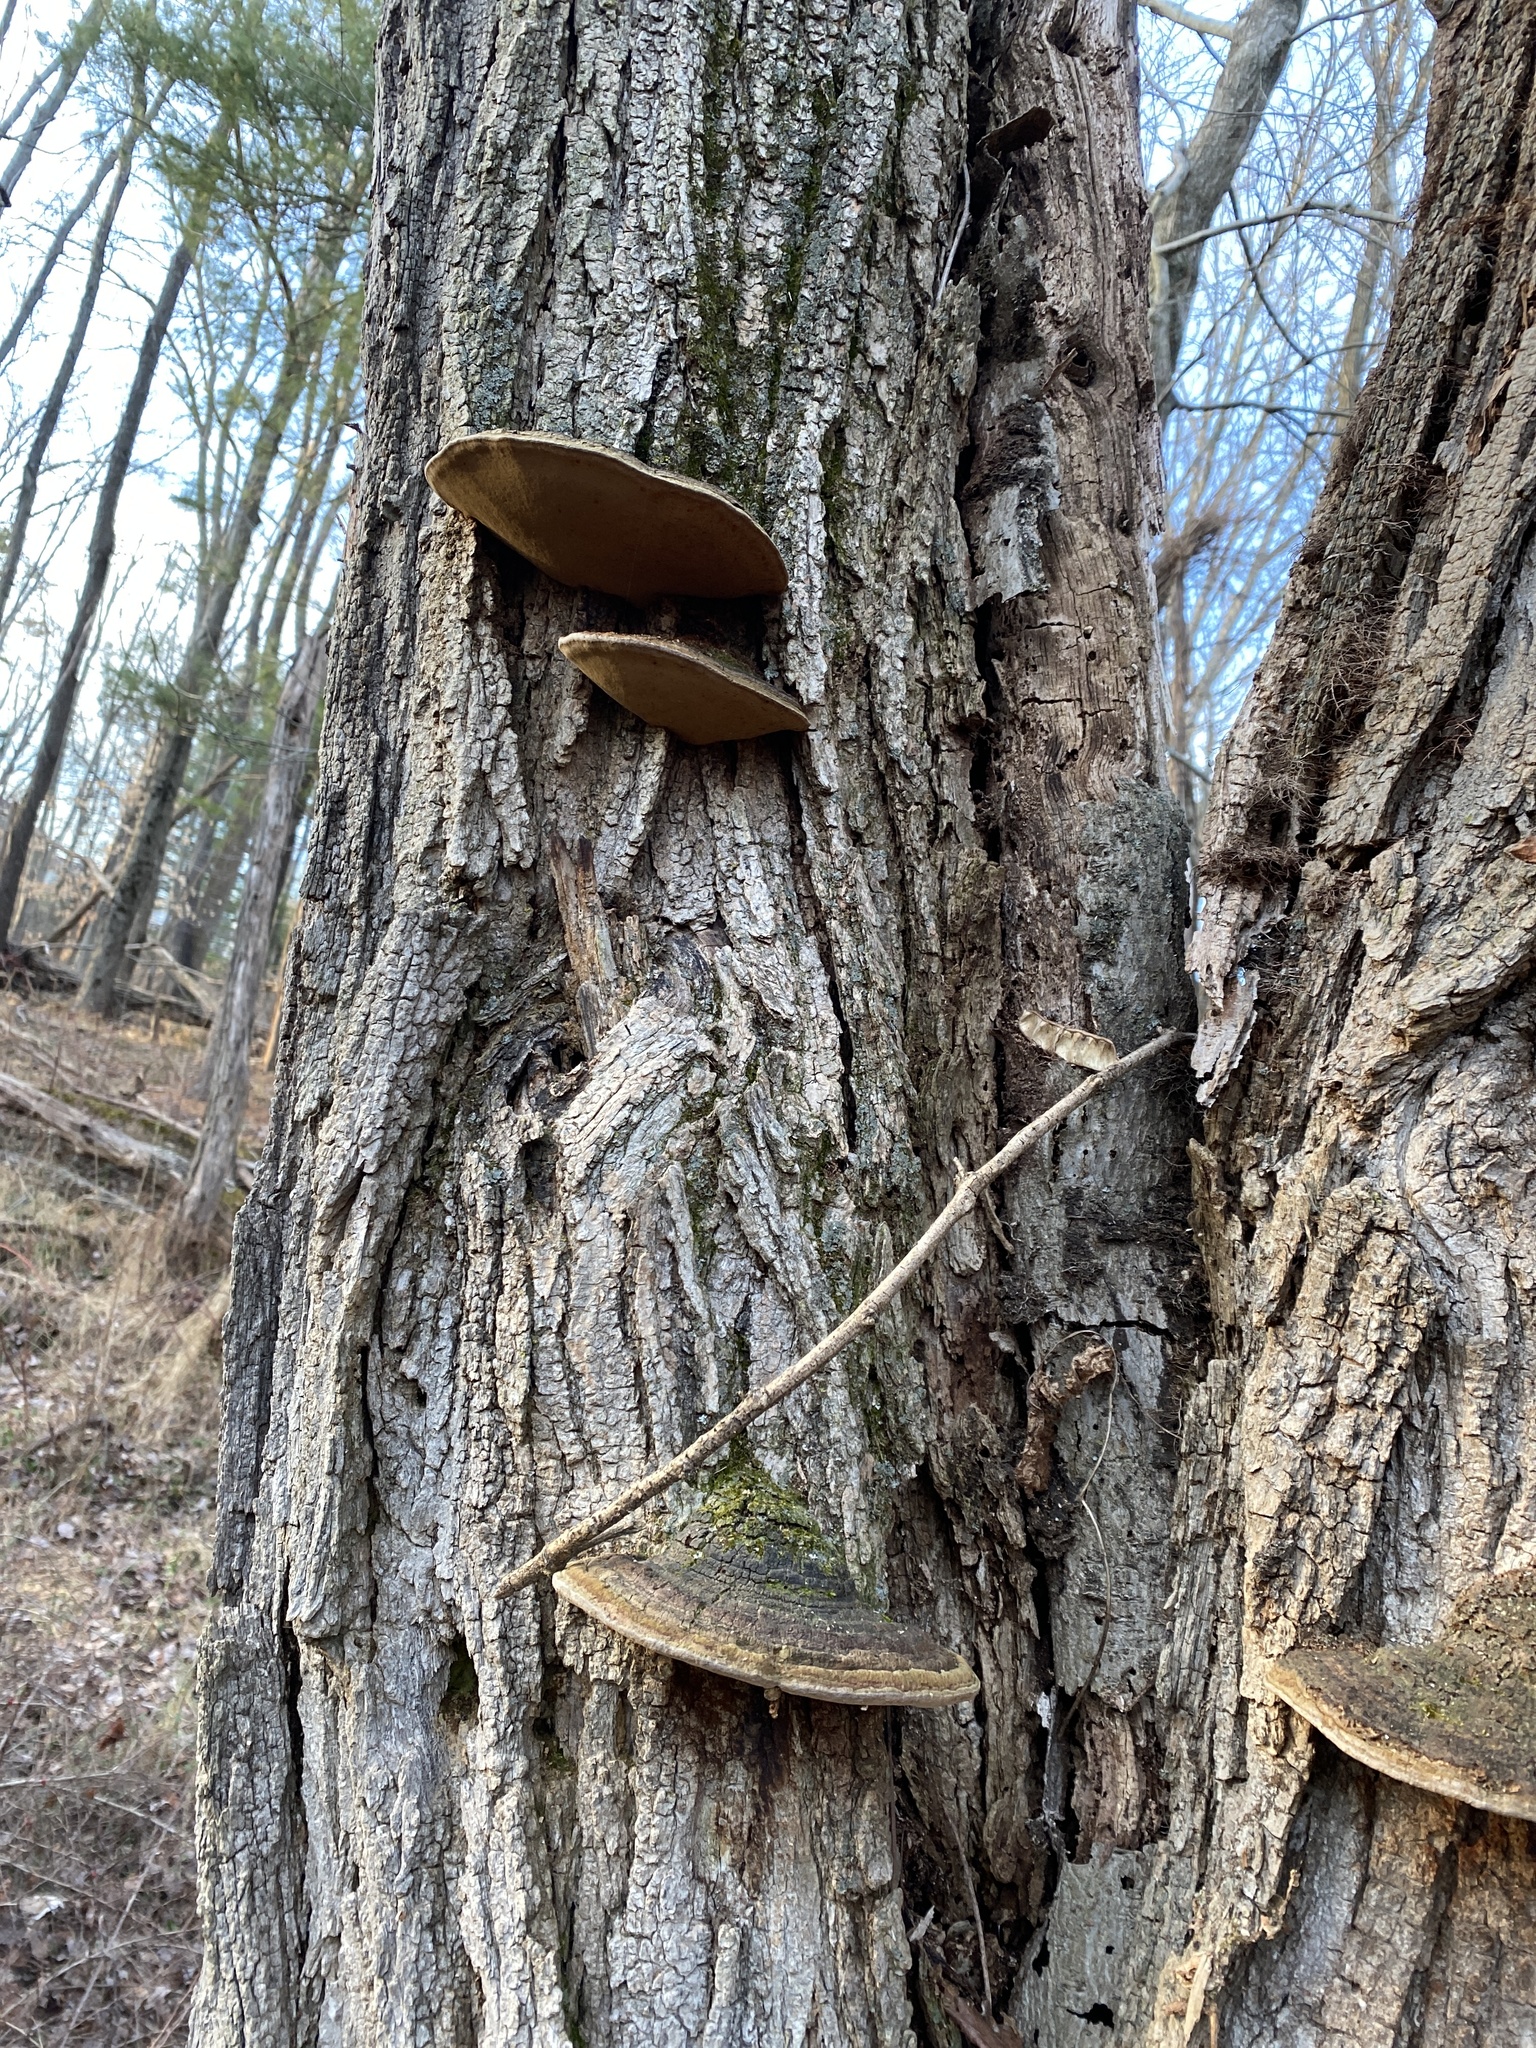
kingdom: Fungi
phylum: Basidiomycota
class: Agaricomycetes
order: Hymenochaetales
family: Hymenochaetaceae
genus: Phellinus
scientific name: Phellinus robiniae
